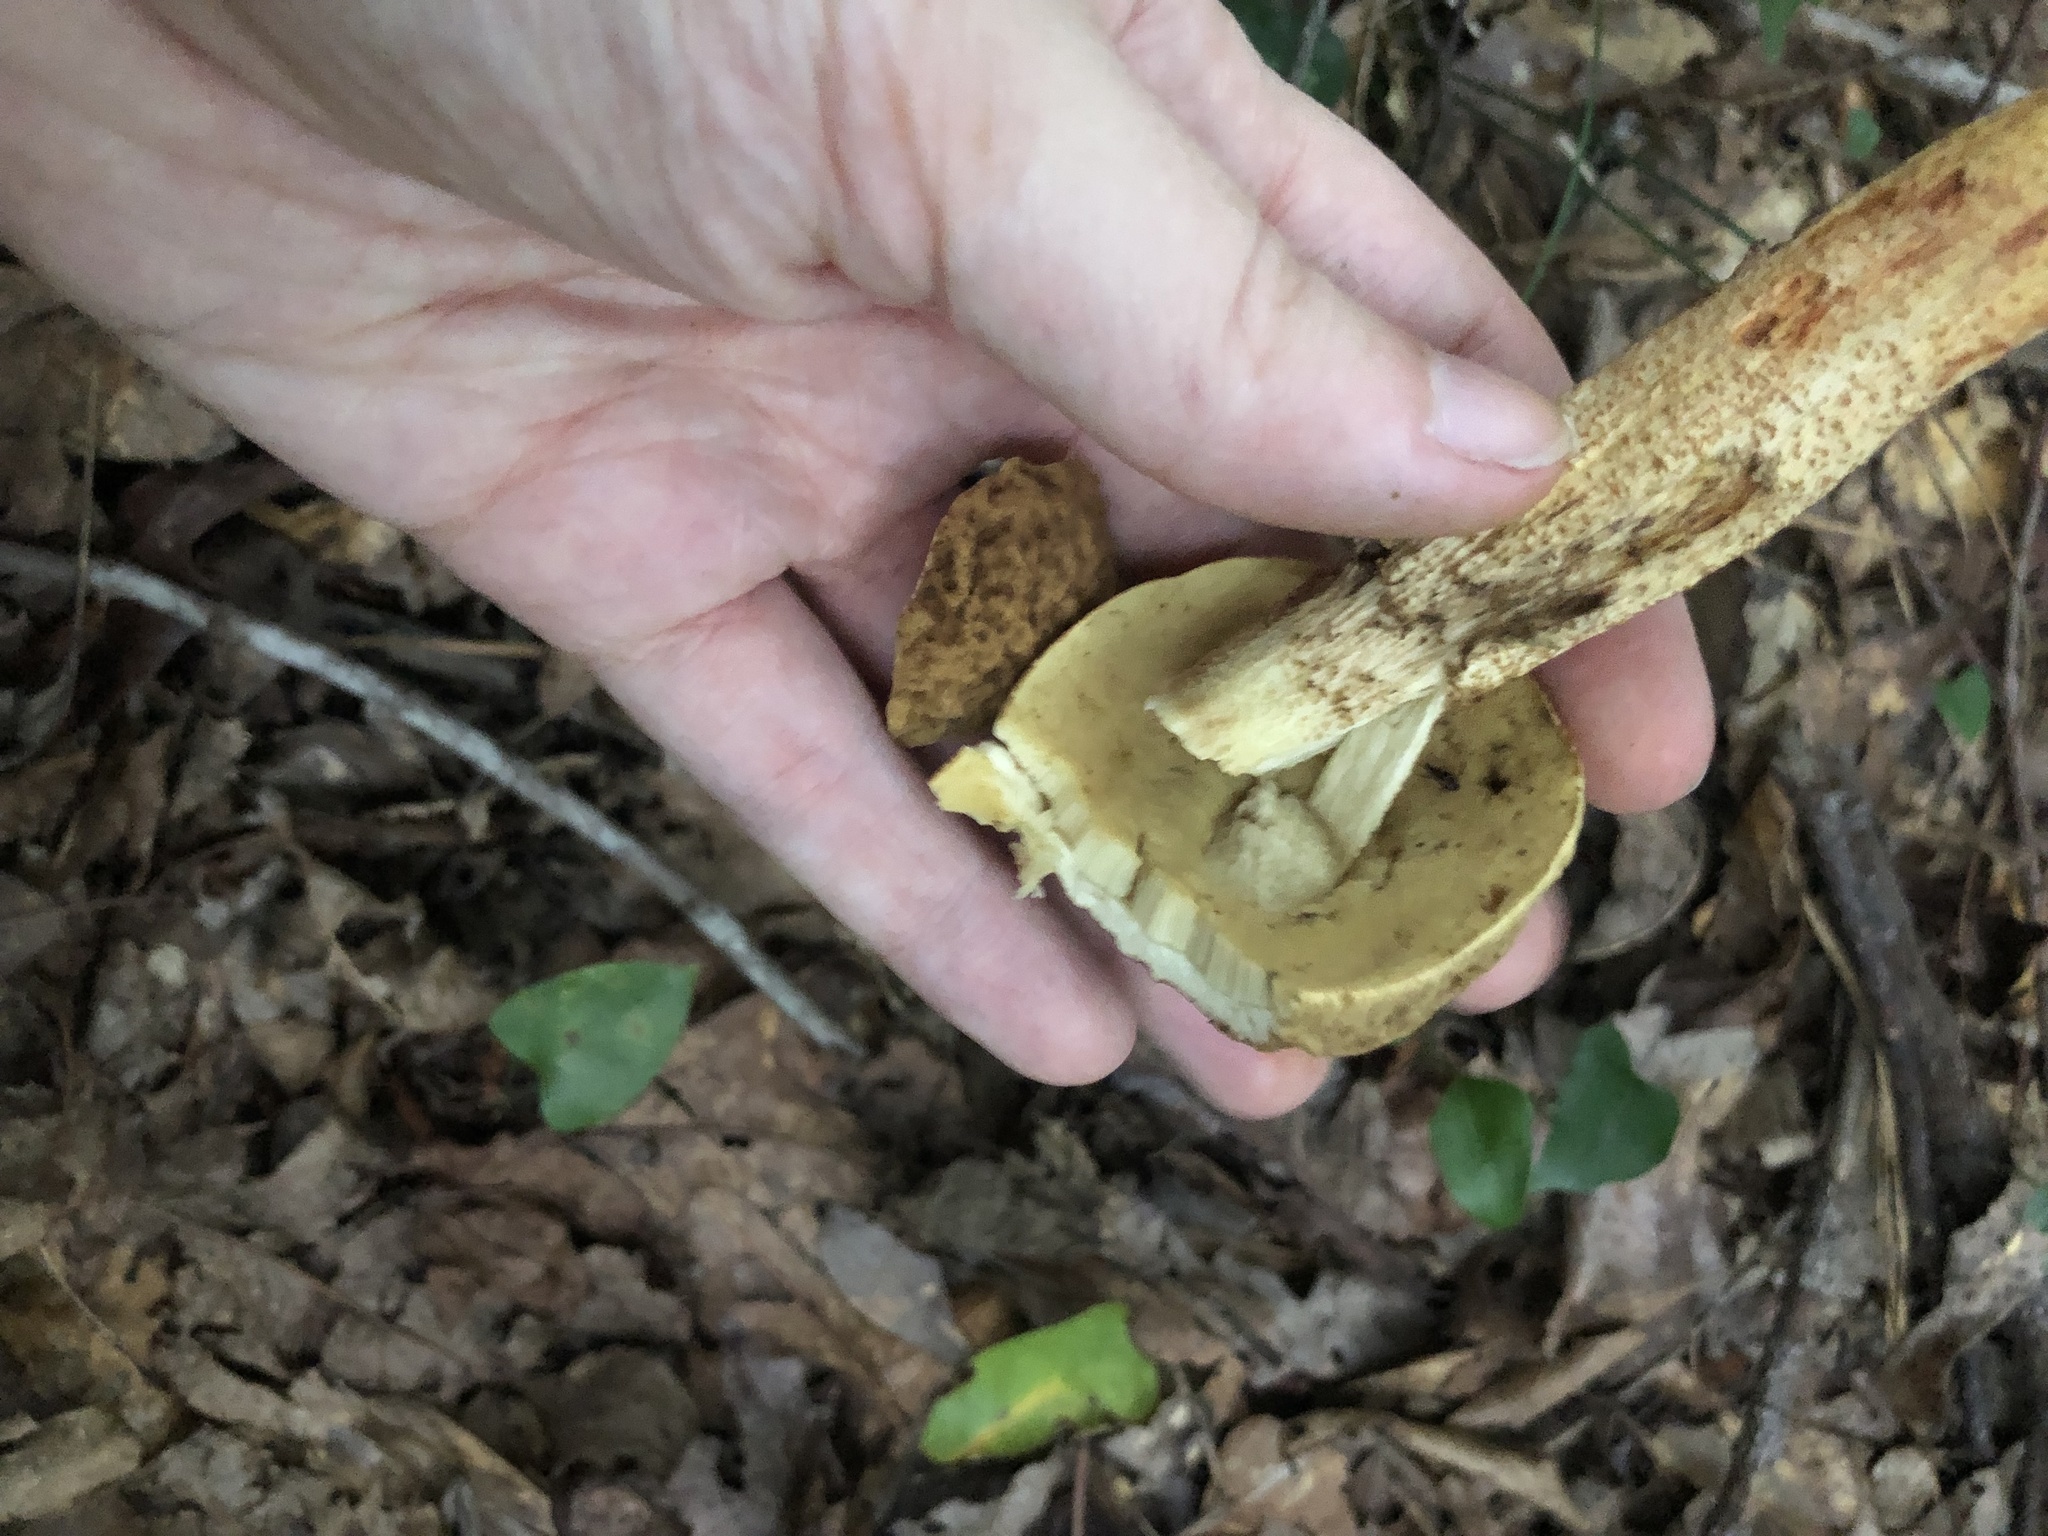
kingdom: Fungi
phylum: Basidiomycota
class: Agaricomycetes
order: Boletales
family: Boletaceae
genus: Leccinellum
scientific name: Leccinellum rugosiceps
